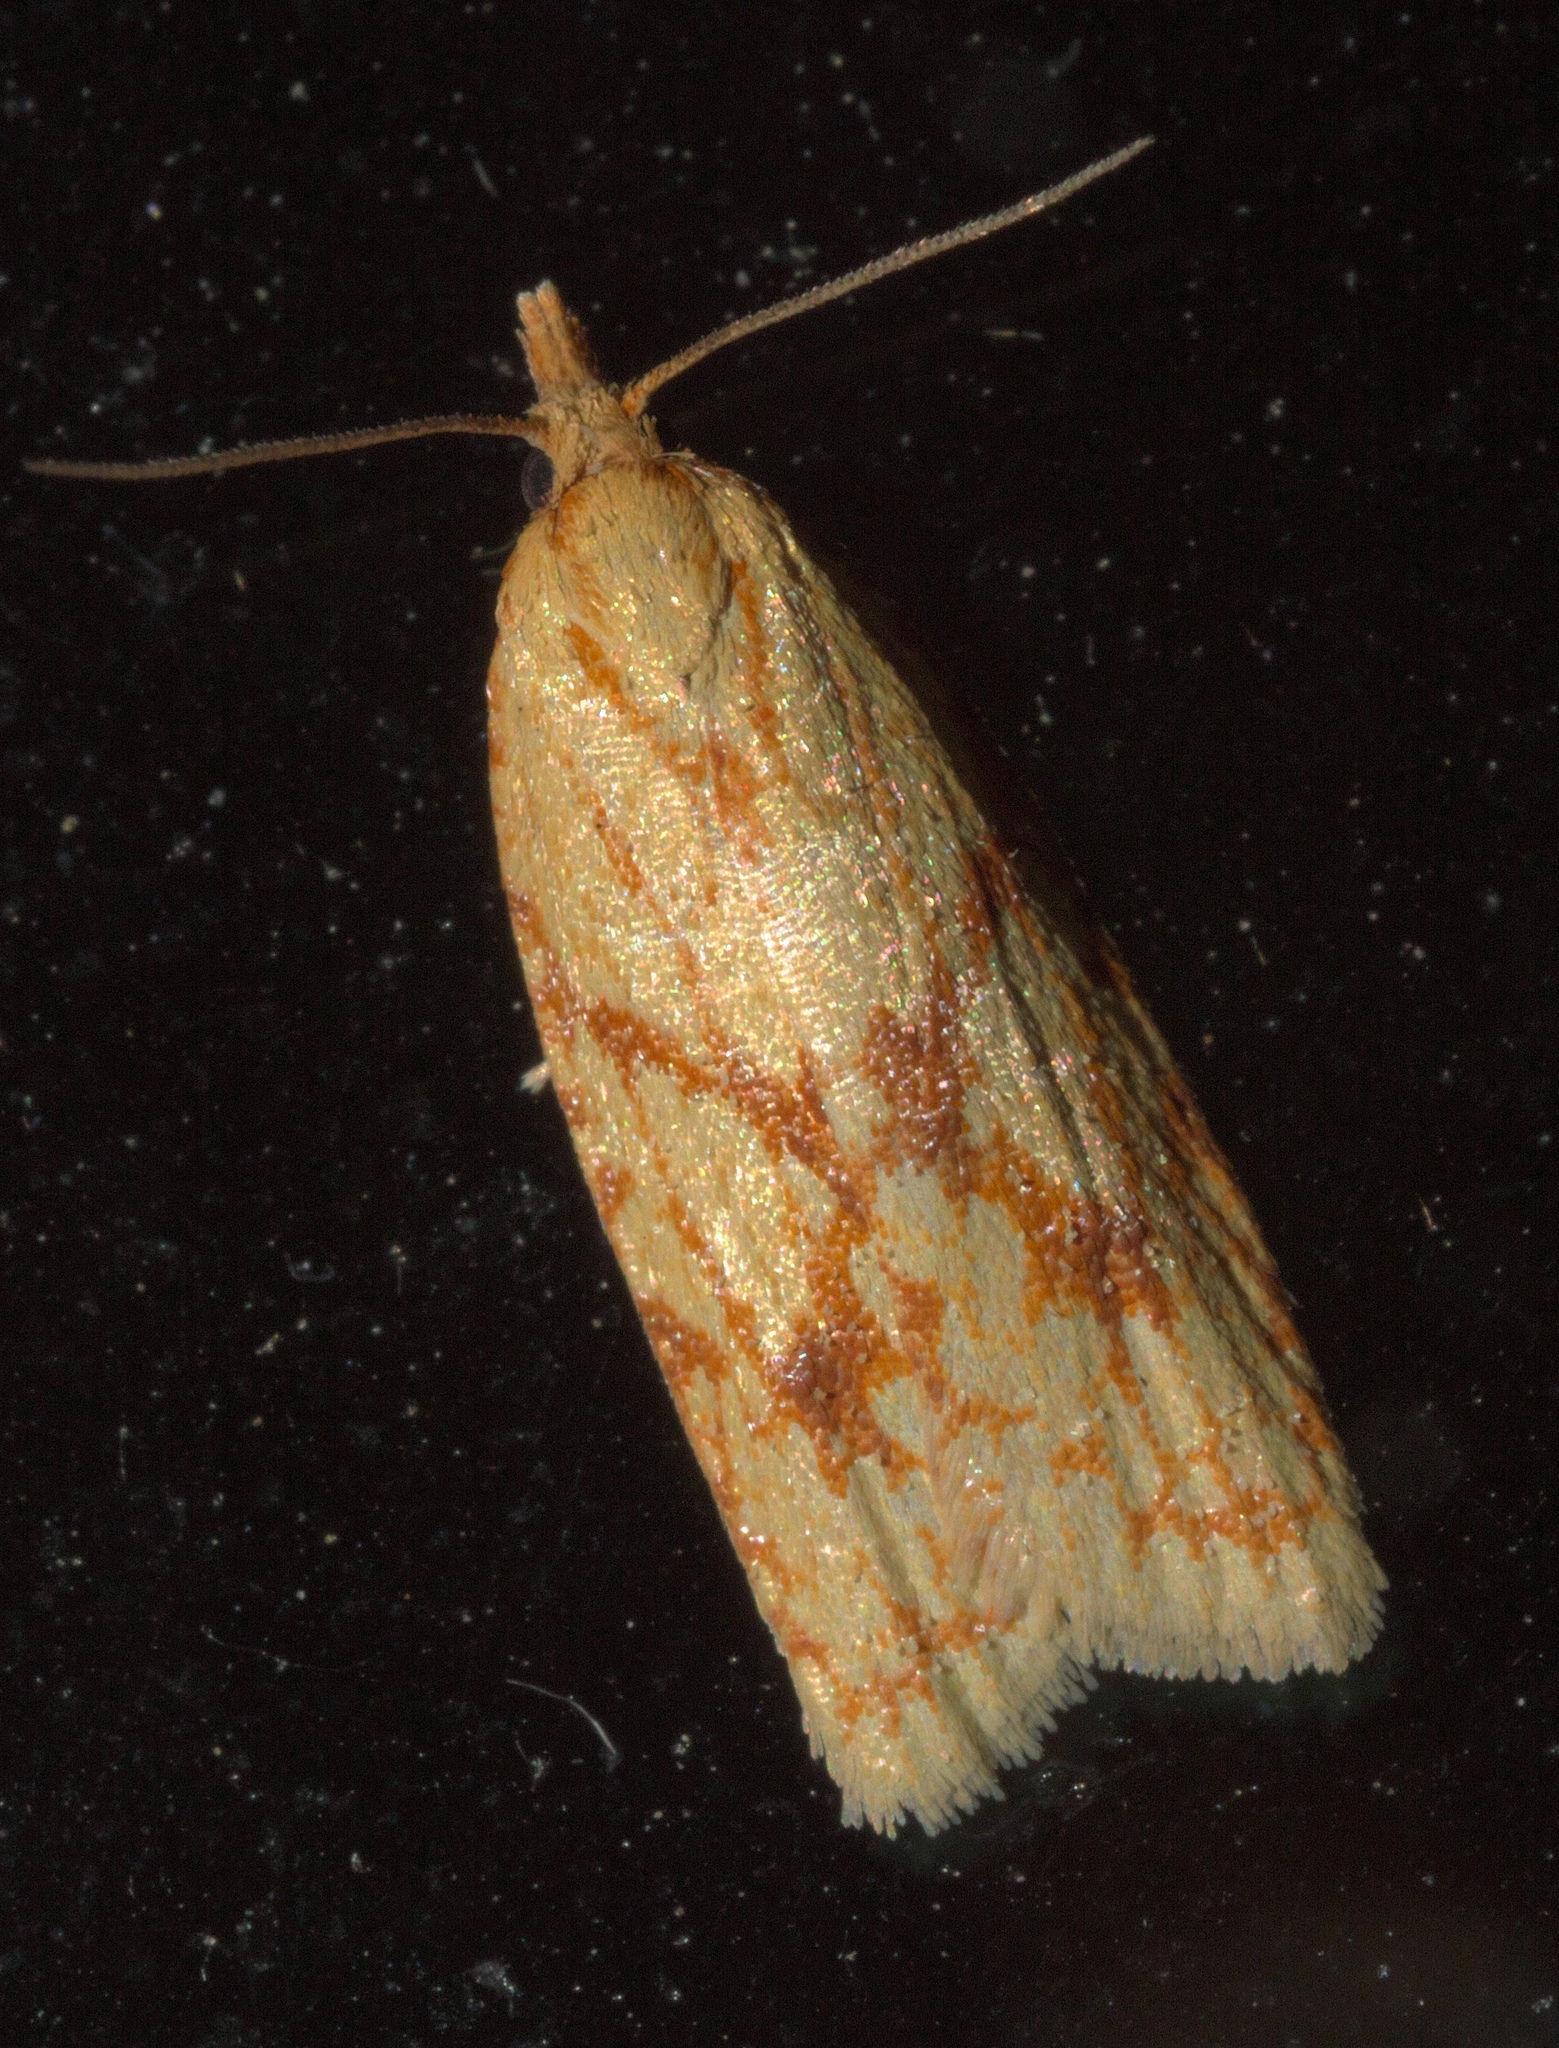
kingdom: Animalia
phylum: Arthropoda
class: Insecta
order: Lepidoptera
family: Tortricidae
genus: Sparganothis
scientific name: Sparganothis sulfureana
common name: Sparganothis fruitworm moth
